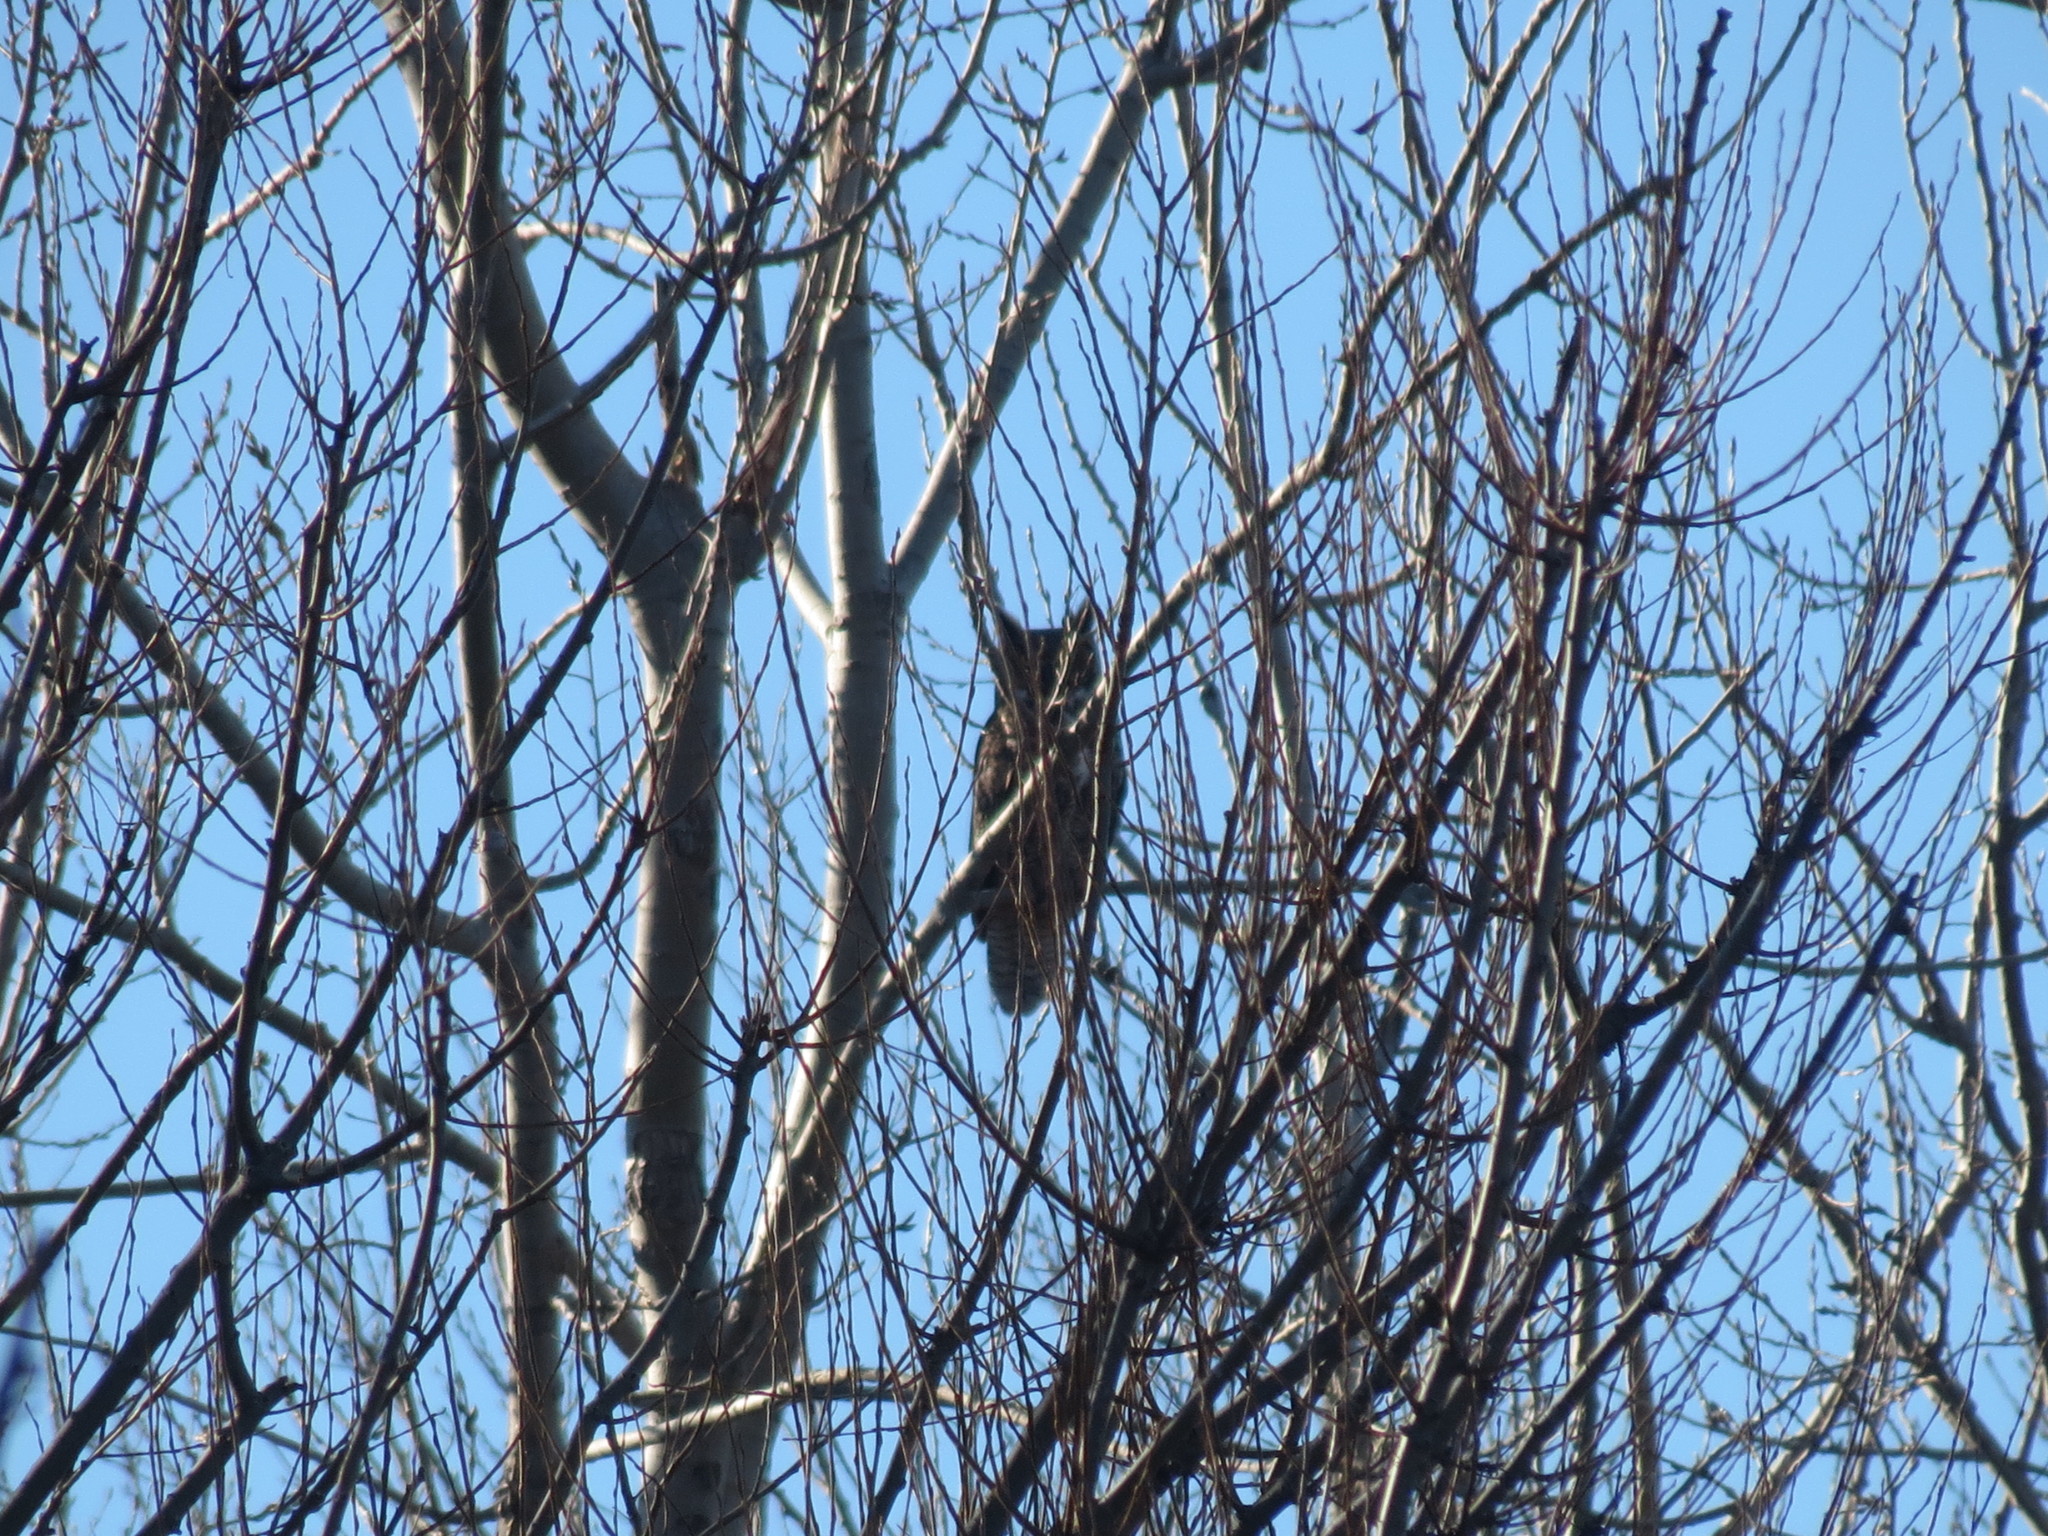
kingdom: Animalia
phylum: Chordata
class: Aves
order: Strigiformes
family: Strigidae
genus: Bubo
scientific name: Bubo virginianus
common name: Great horned owl
